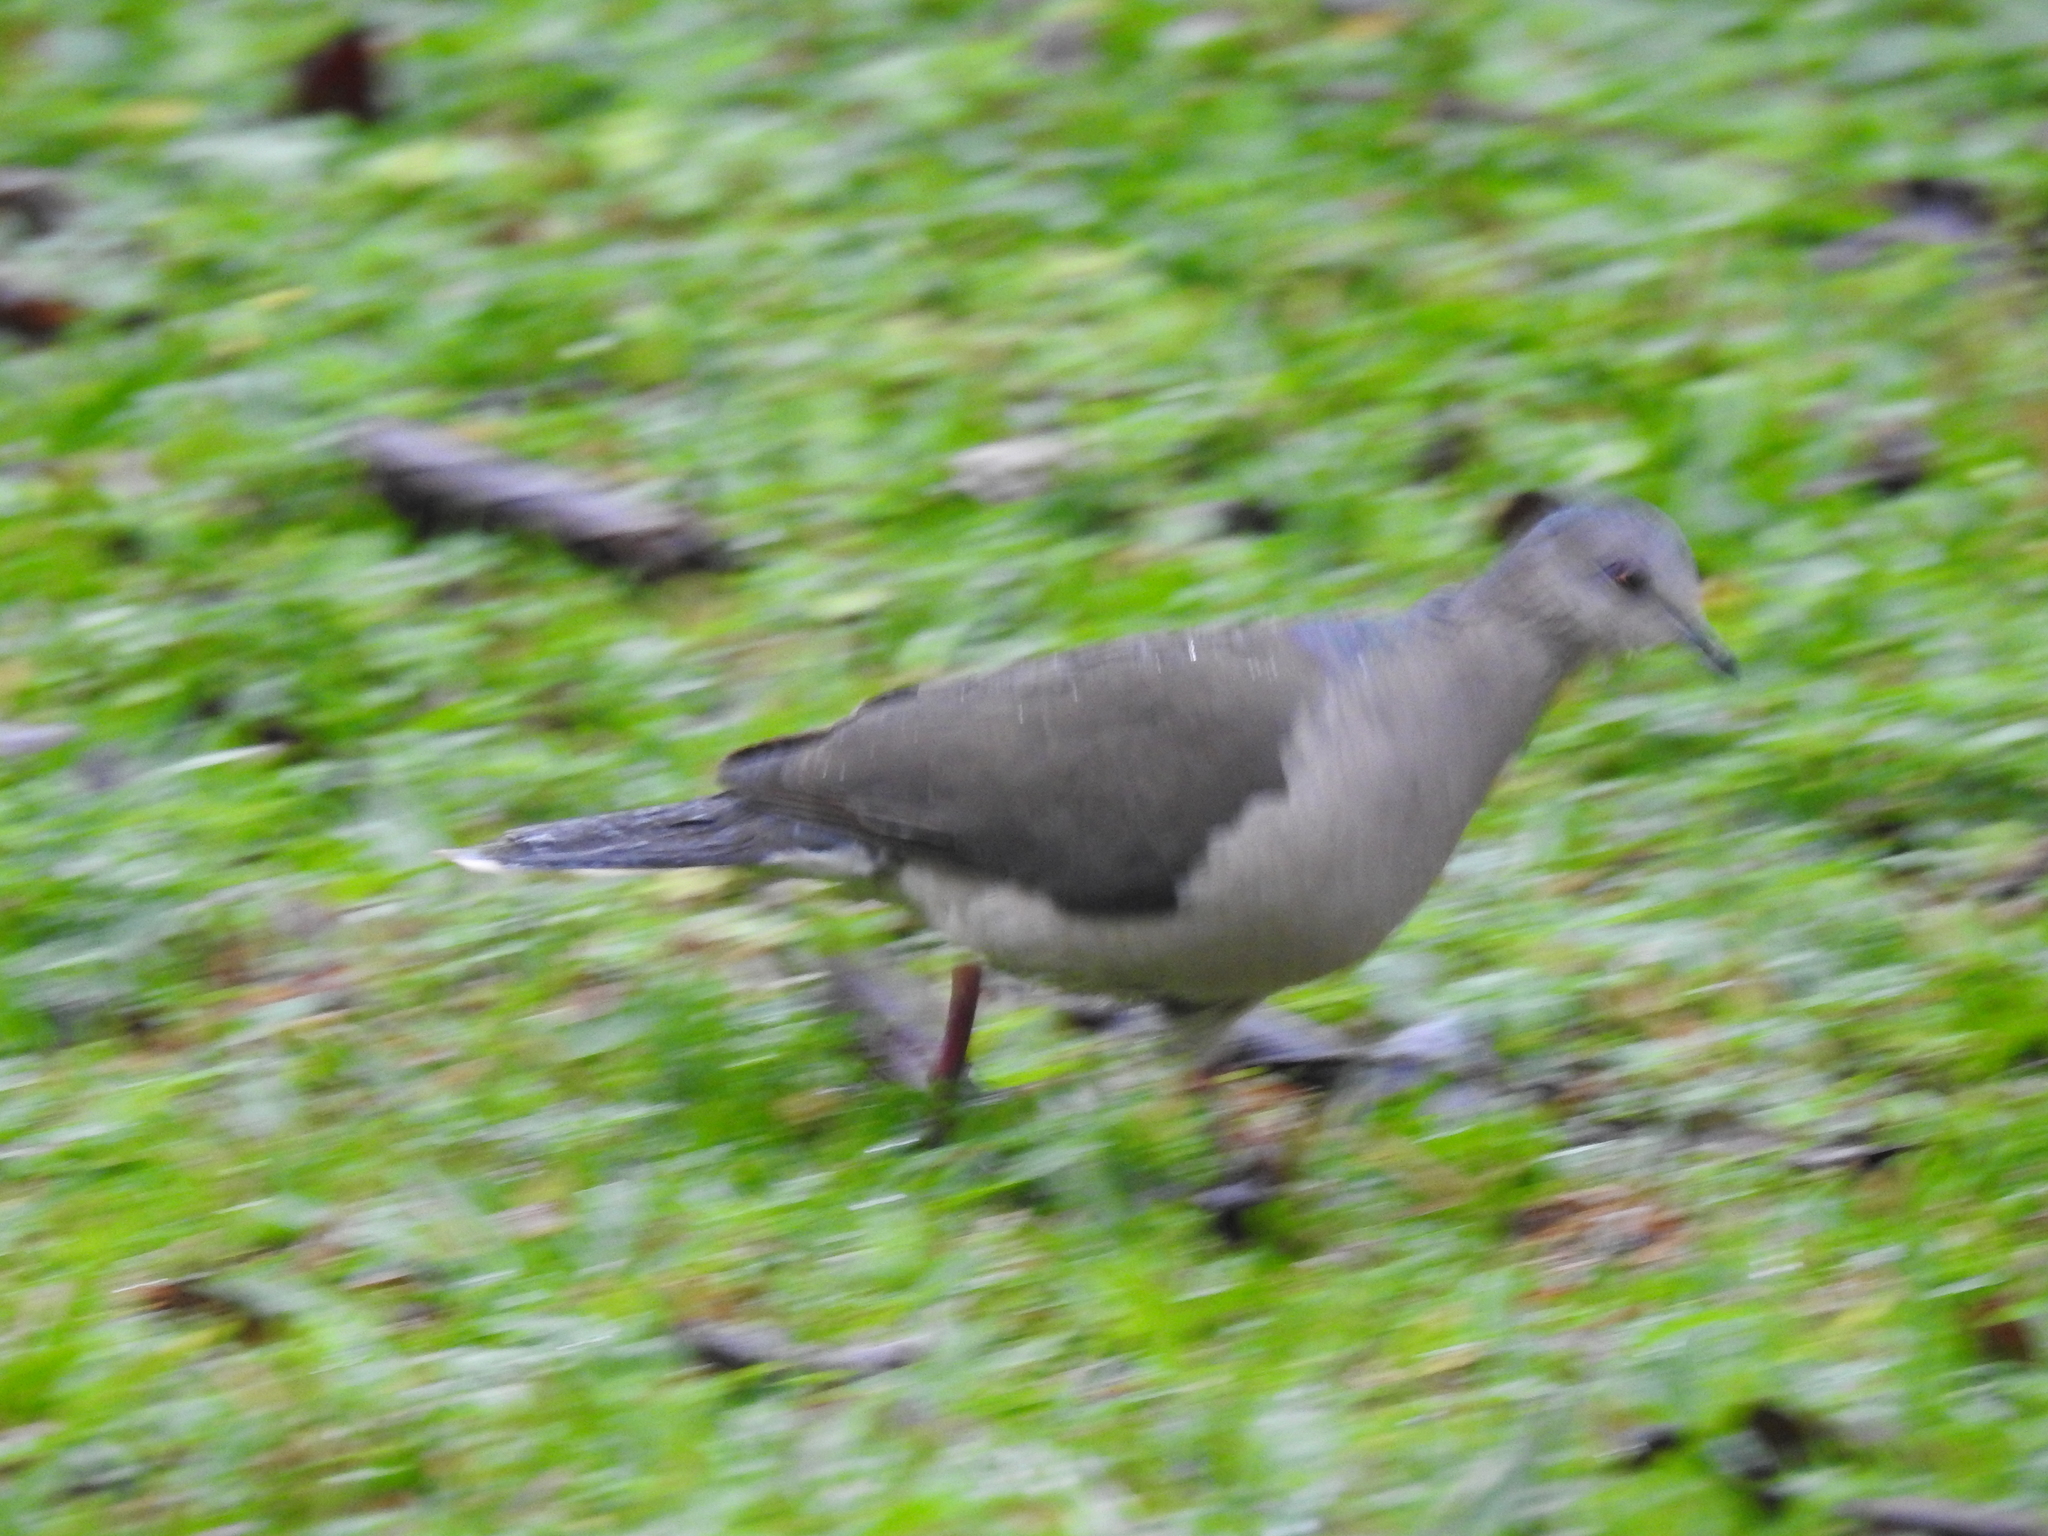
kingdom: Animalia
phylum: Chordata
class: Aves
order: Columbiformes
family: Columbidae
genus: Leptotila
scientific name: Leptotila verreauxi
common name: White-tipped dove
